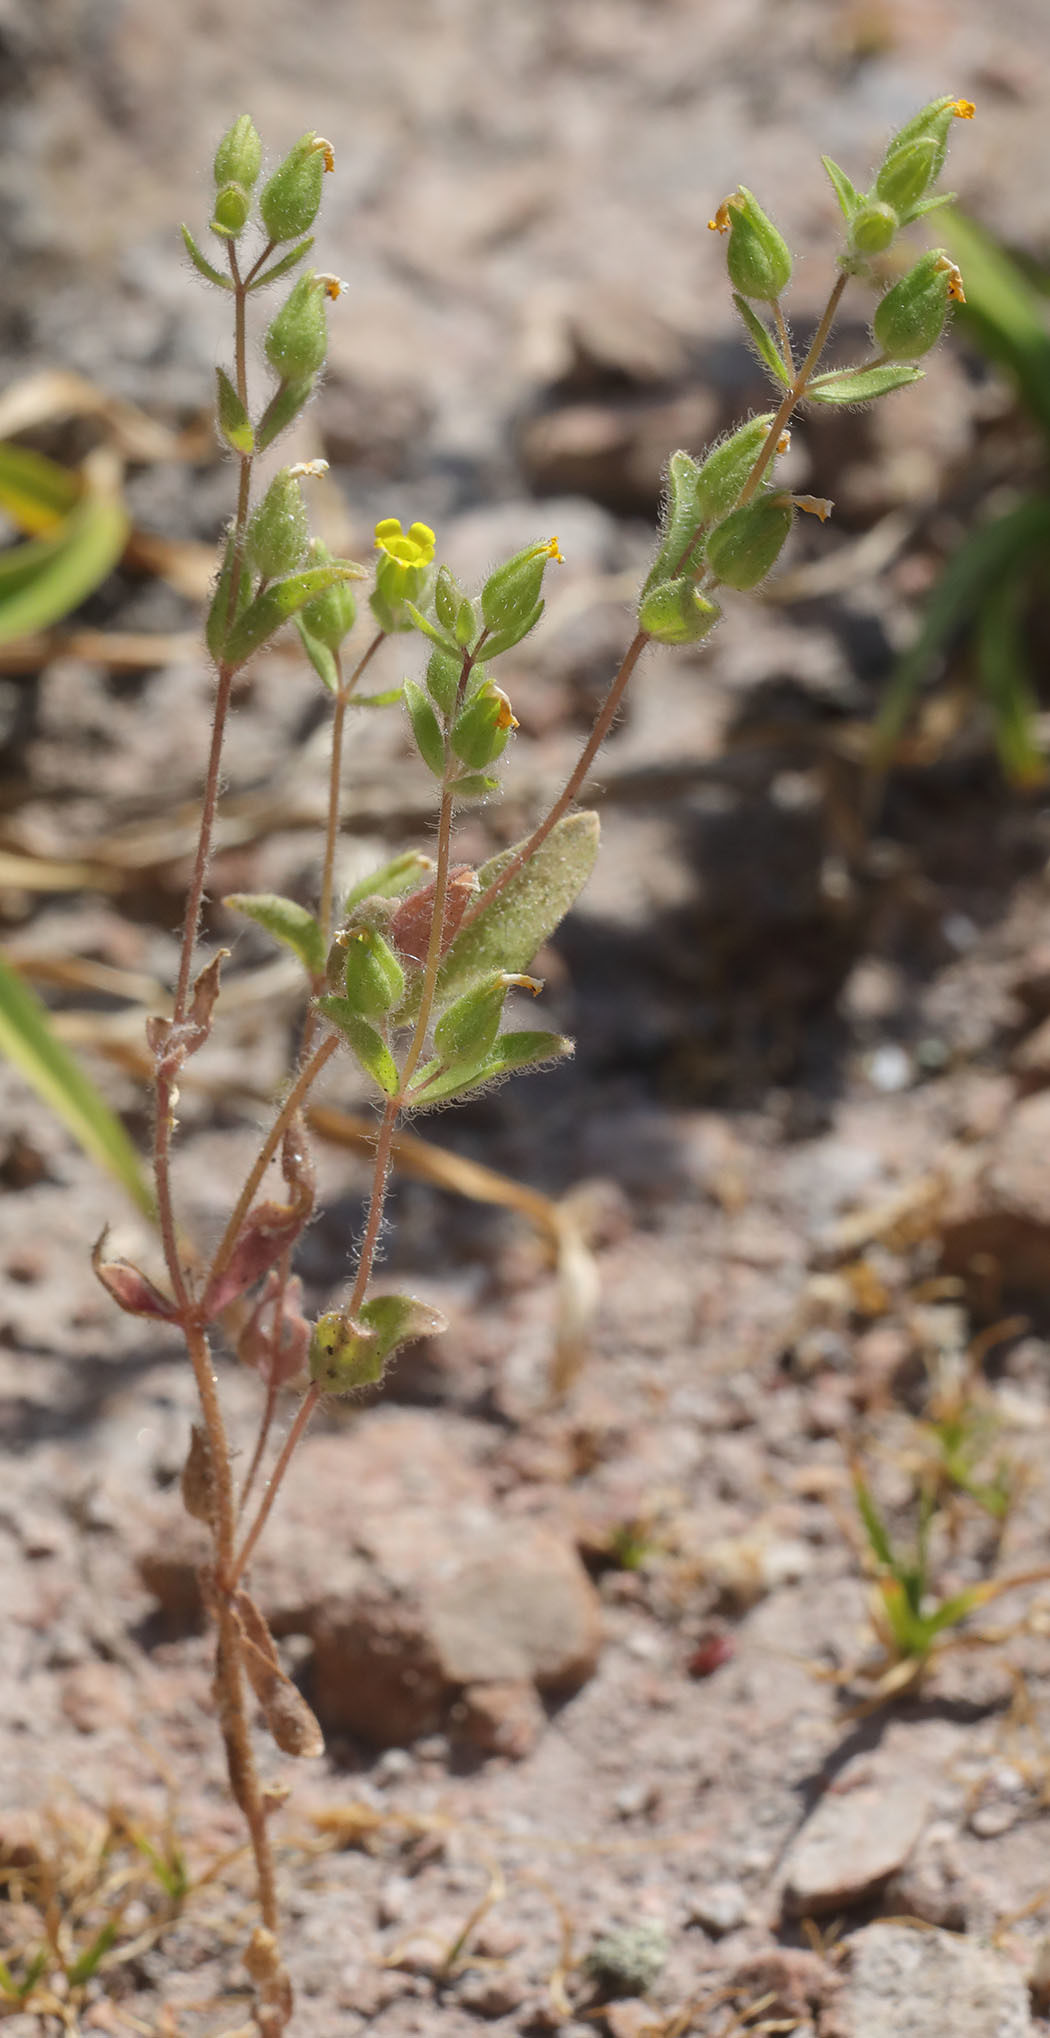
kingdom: Plantae
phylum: Tracheophyta
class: Magnoliopsida
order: Lamiales
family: Phrymaceae
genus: Mimetanthe
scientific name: Mimetanthe pilosa
